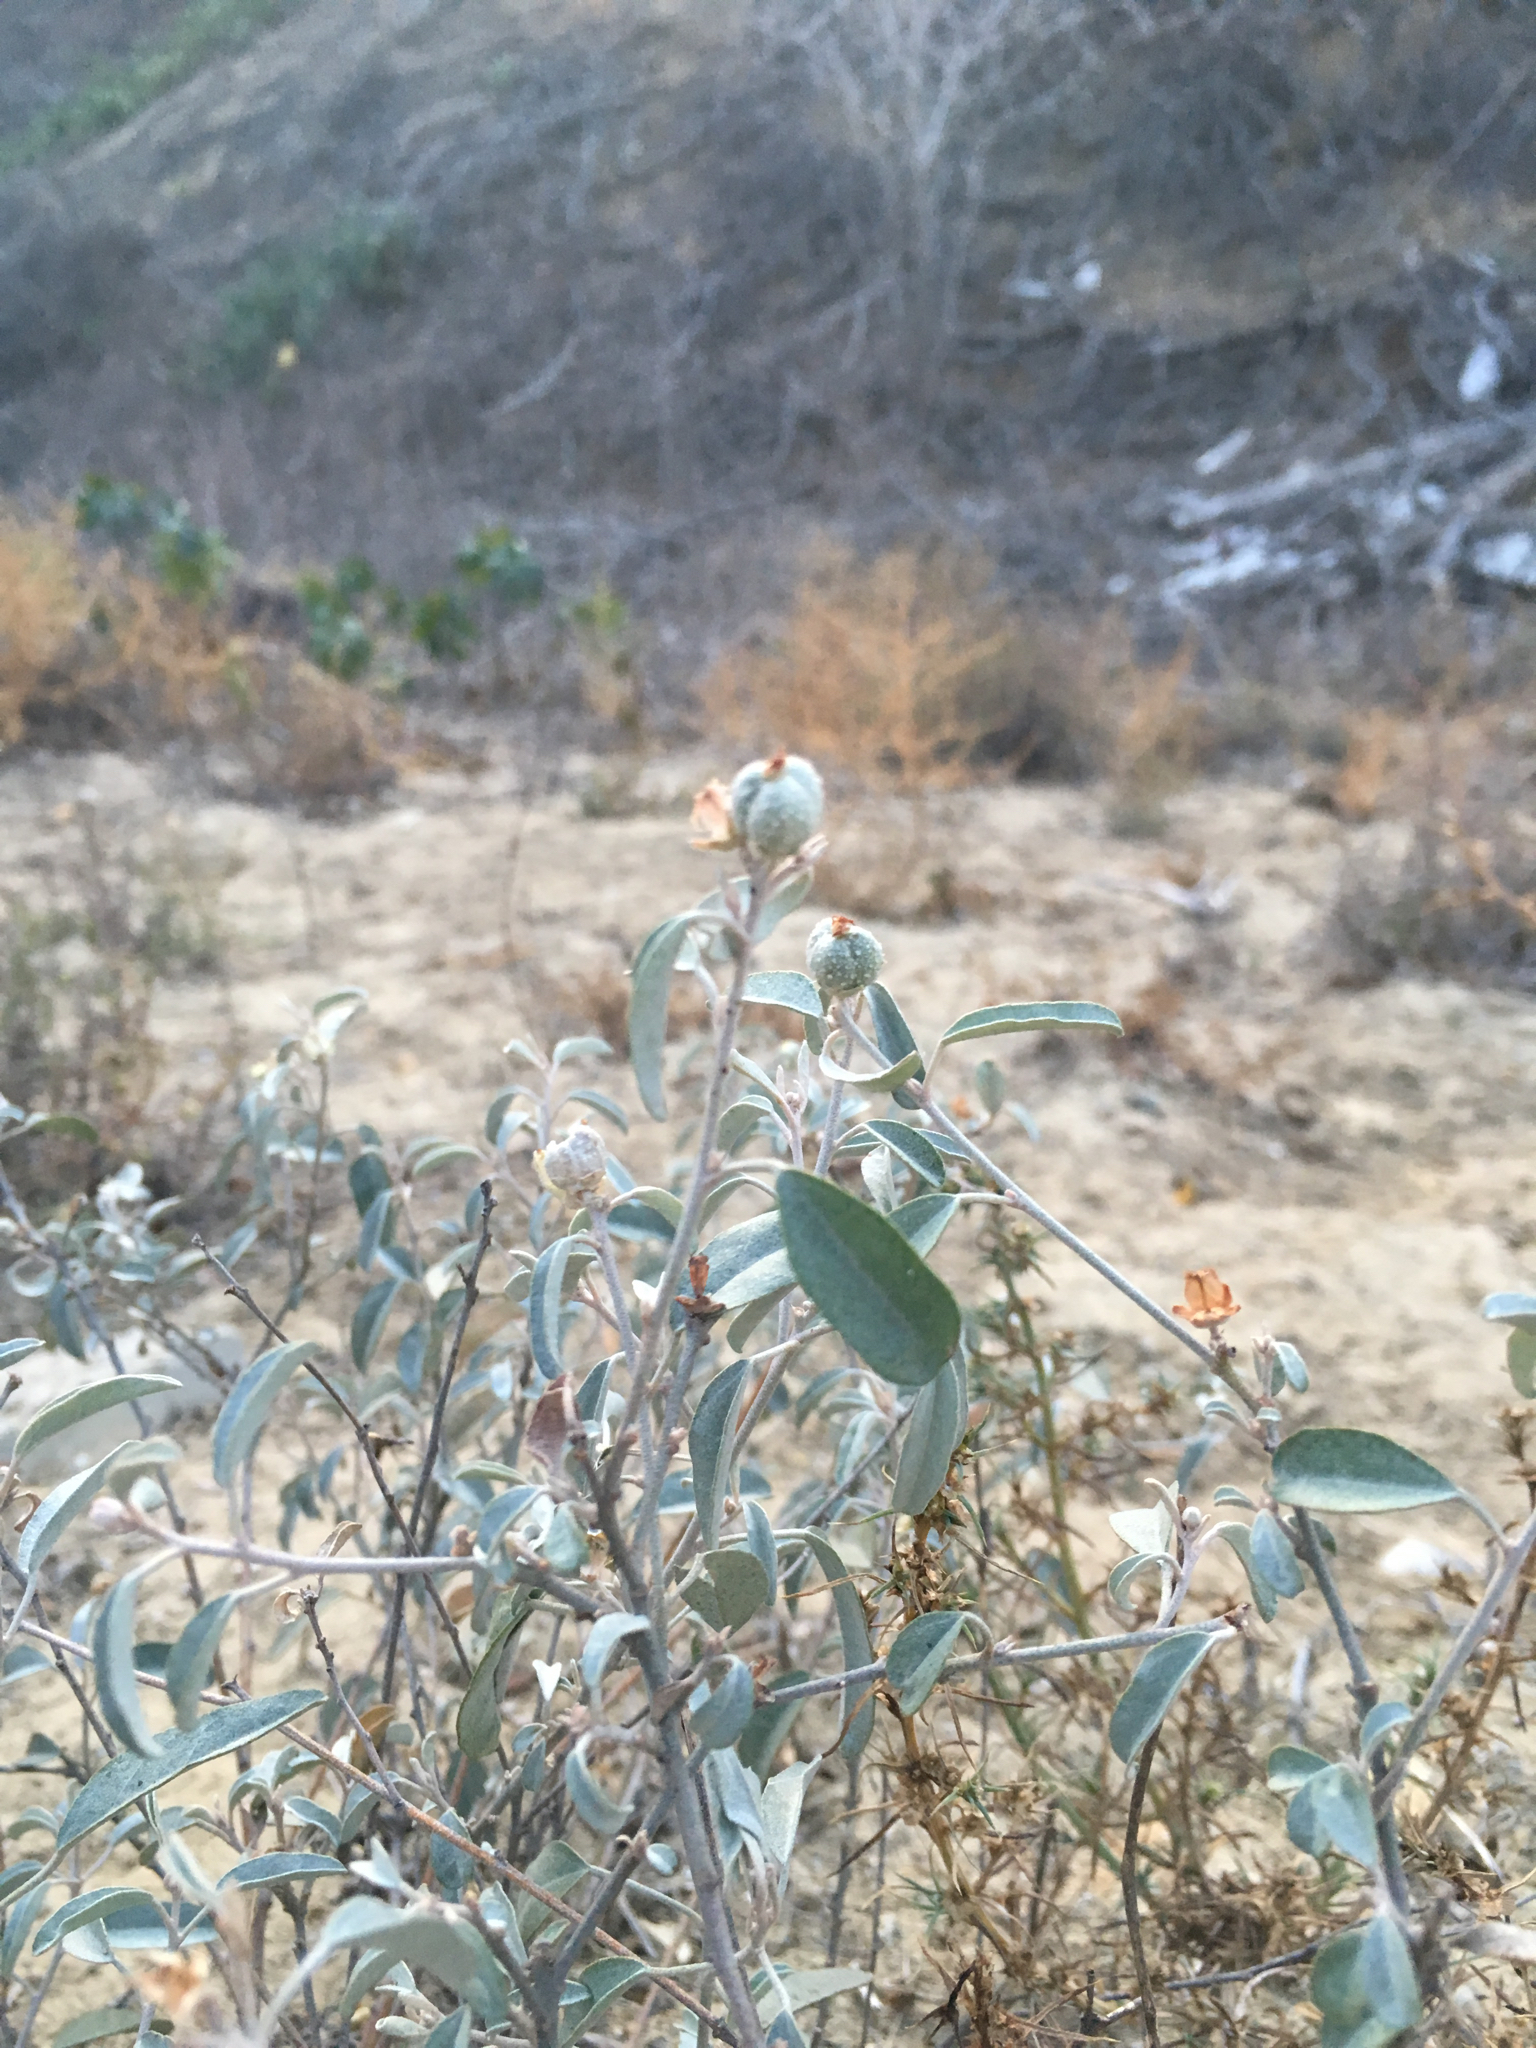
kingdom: Plantae
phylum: Tracheophyta
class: Magnoliopsida
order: Malpighiales
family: Euphorbiaceae
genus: Croton
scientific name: Croton californicus
